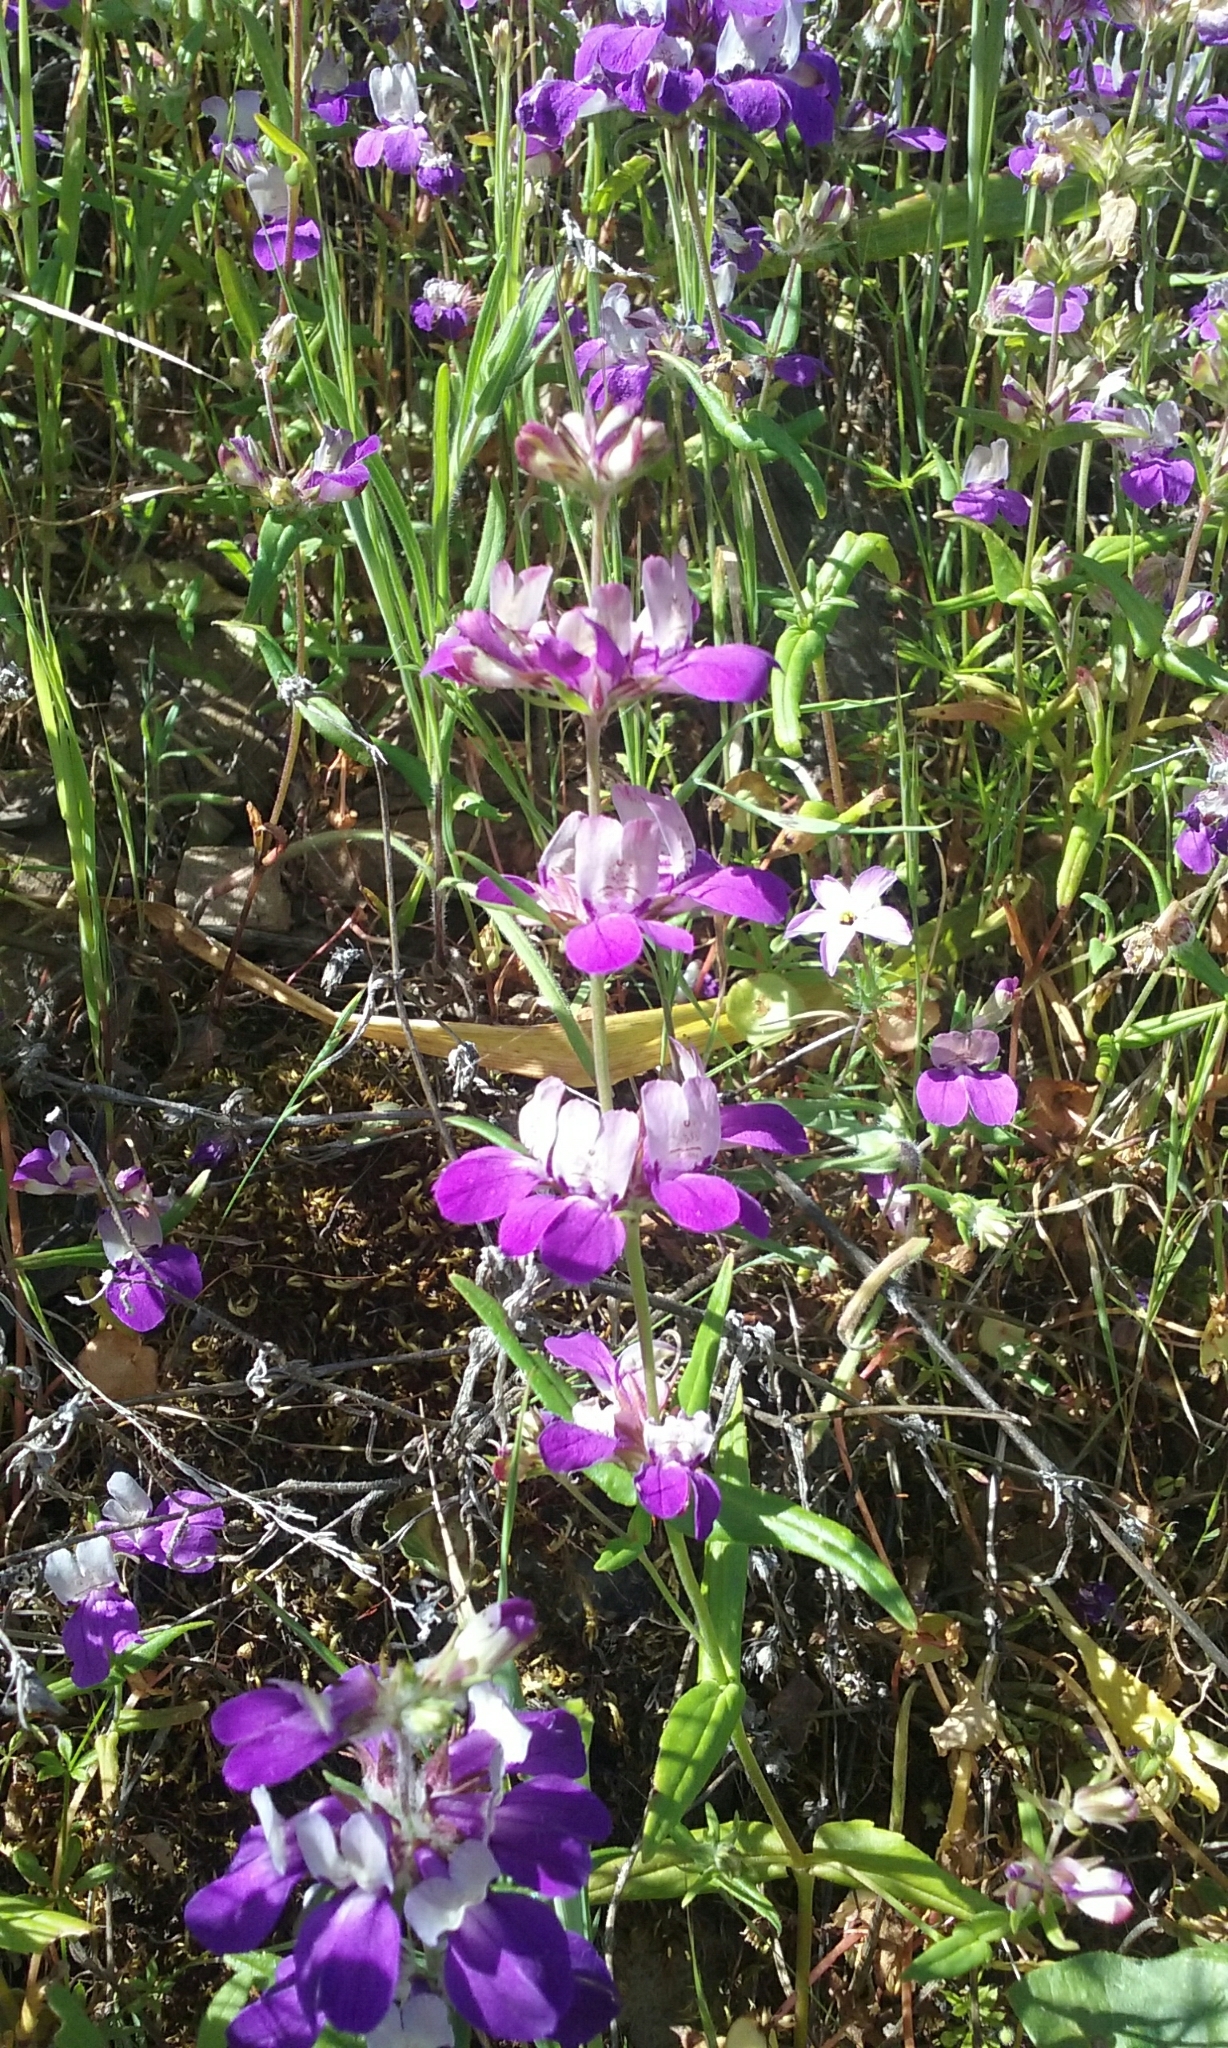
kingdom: Plantae
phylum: Tracheophyta
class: Magnoliopsida
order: Lamiales
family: Plantaginaceae
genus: Collinsia
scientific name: Collinsia heterophylla
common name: Chinese-houses
